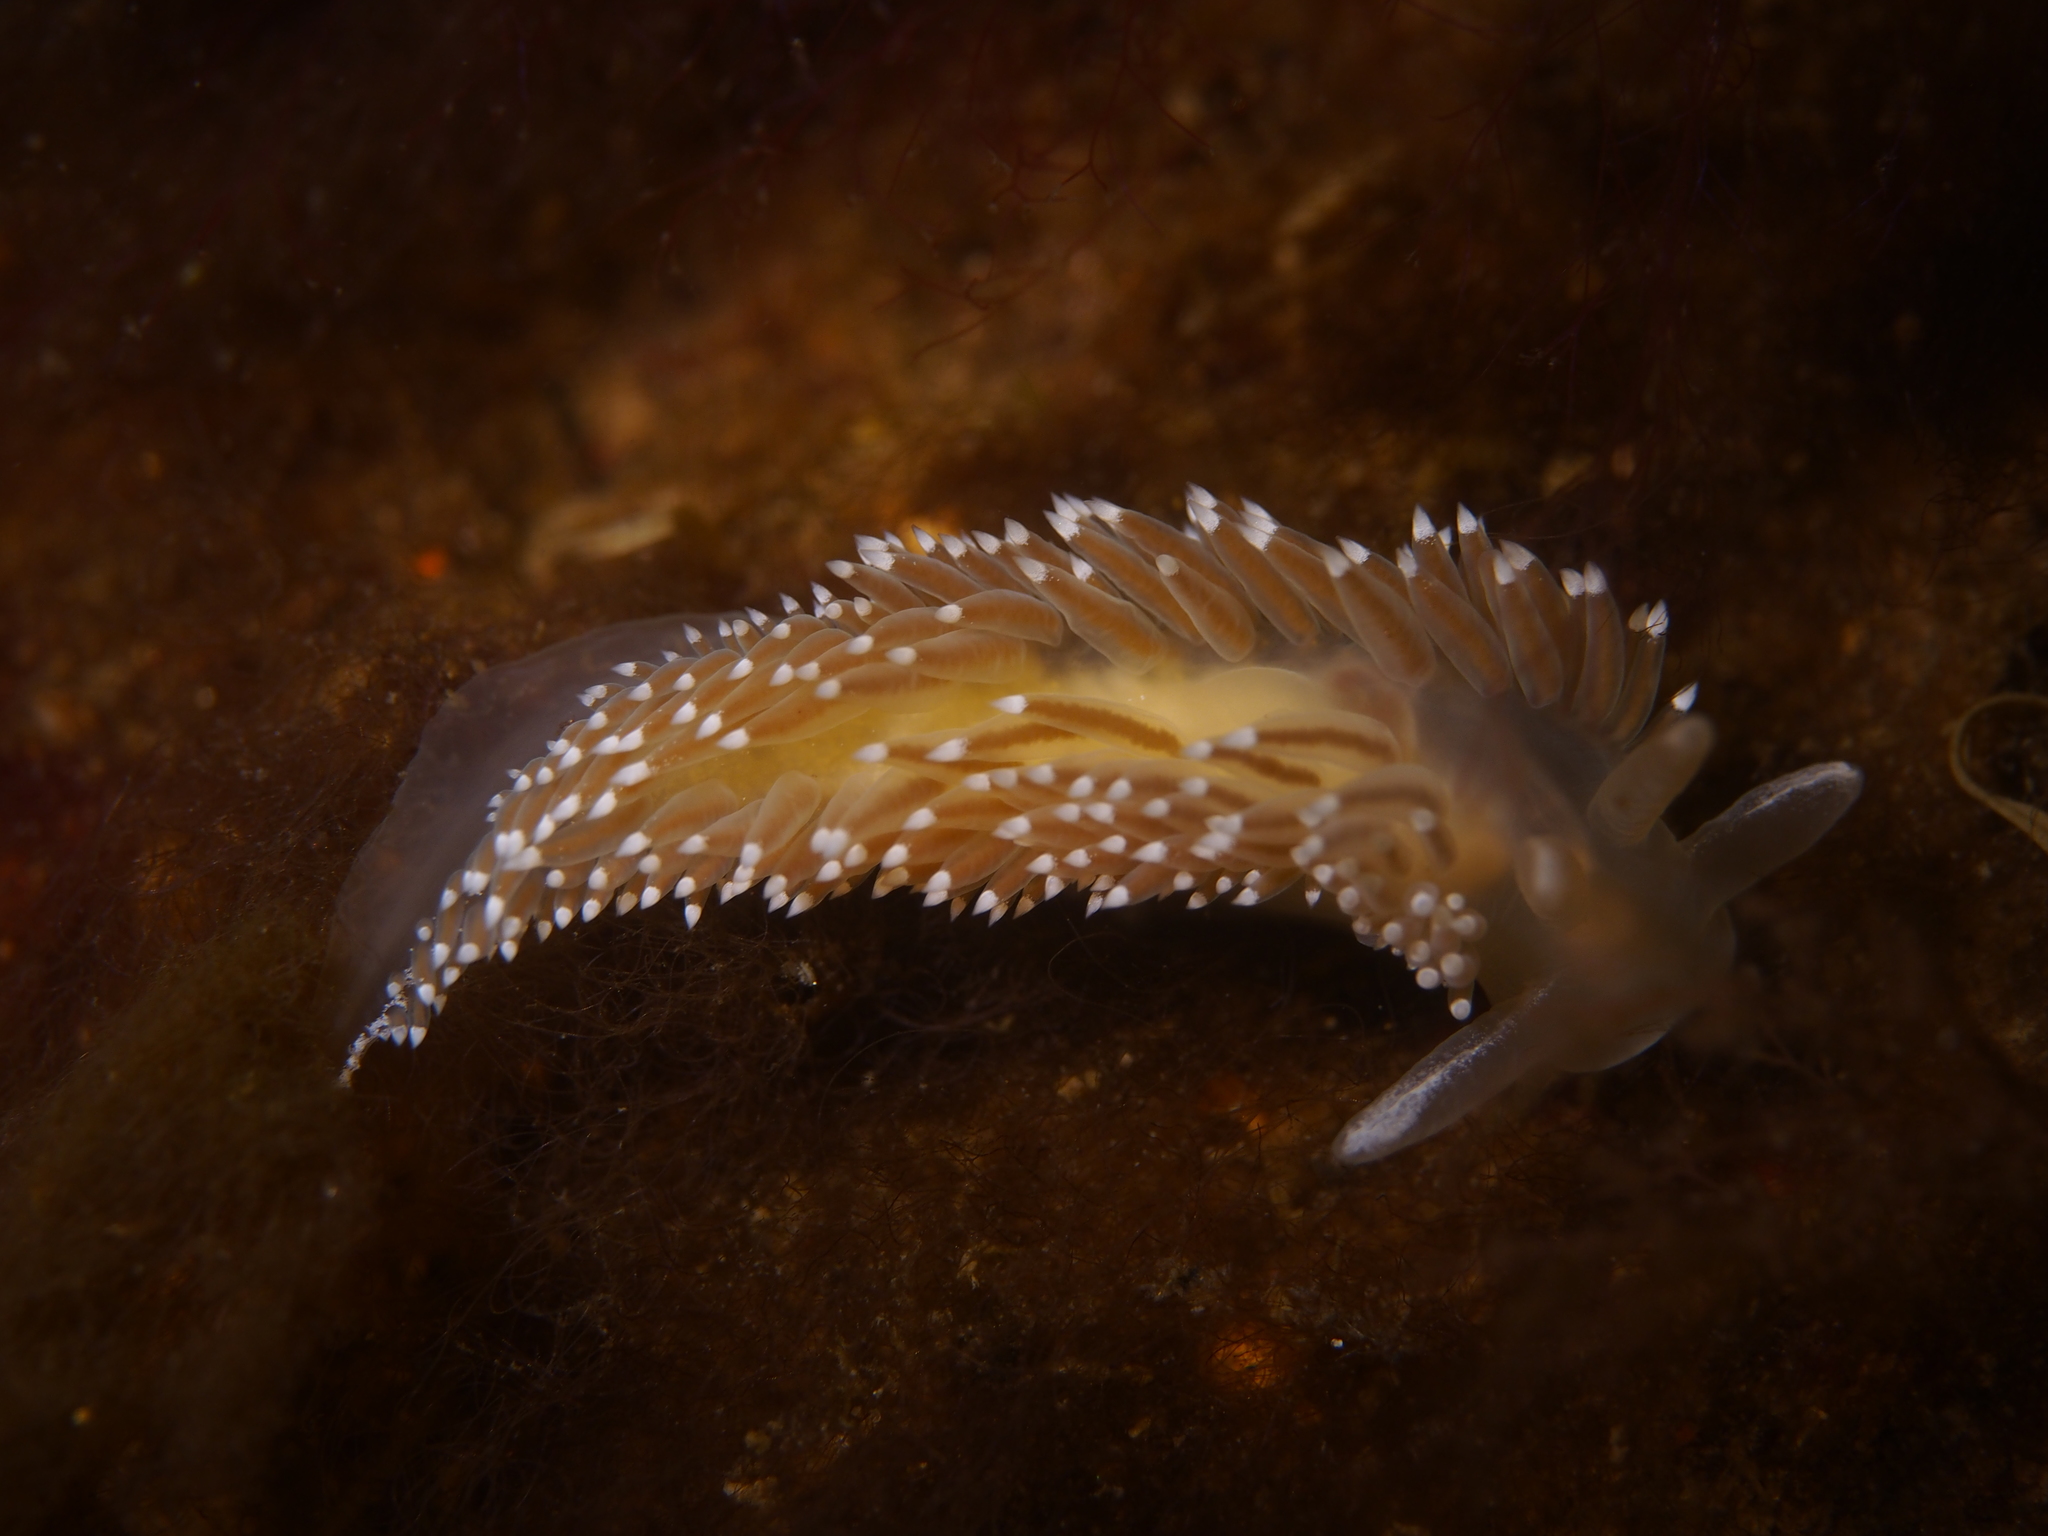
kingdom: Animalia
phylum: Mollusca
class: Gastropoda
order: Nudibranchia
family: Coryphellidae
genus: Coryphella
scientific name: Coryphella nobilis
